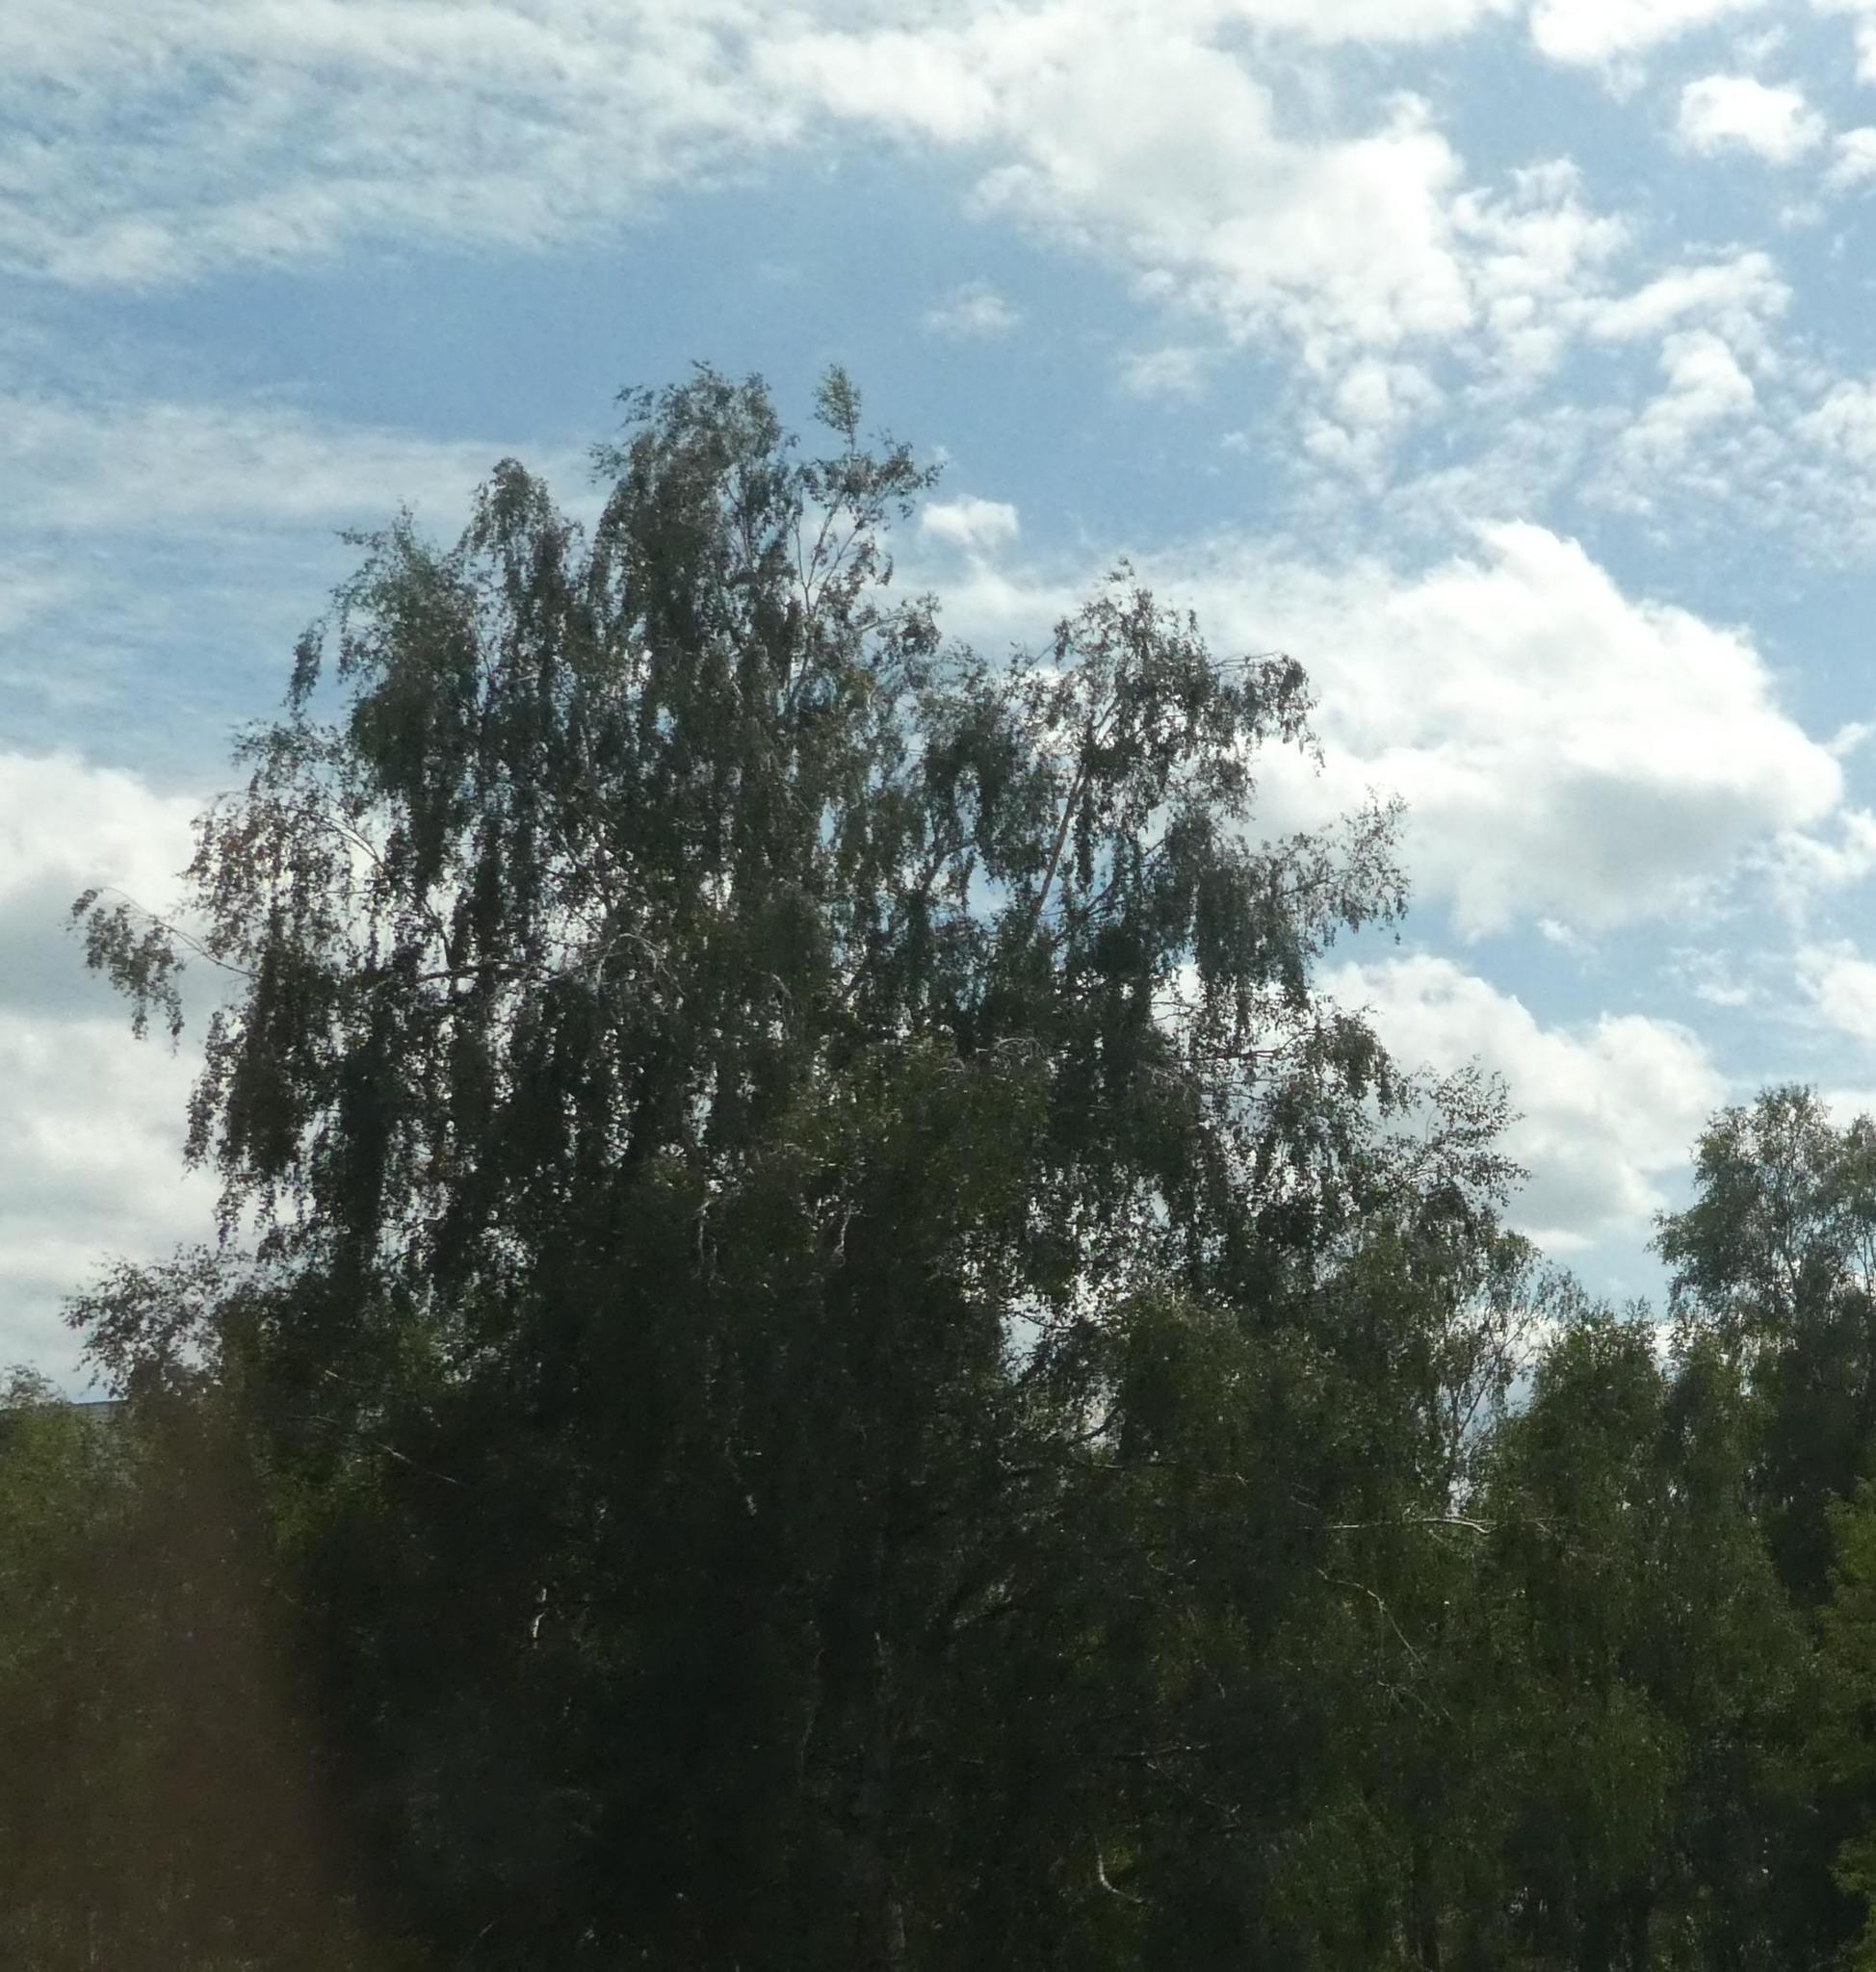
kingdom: Plantae
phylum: Tracheophyta
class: Magnoliopsida
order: Santalales
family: Viscaceae
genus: Viscum
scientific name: Viscum album
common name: Mistletoe
